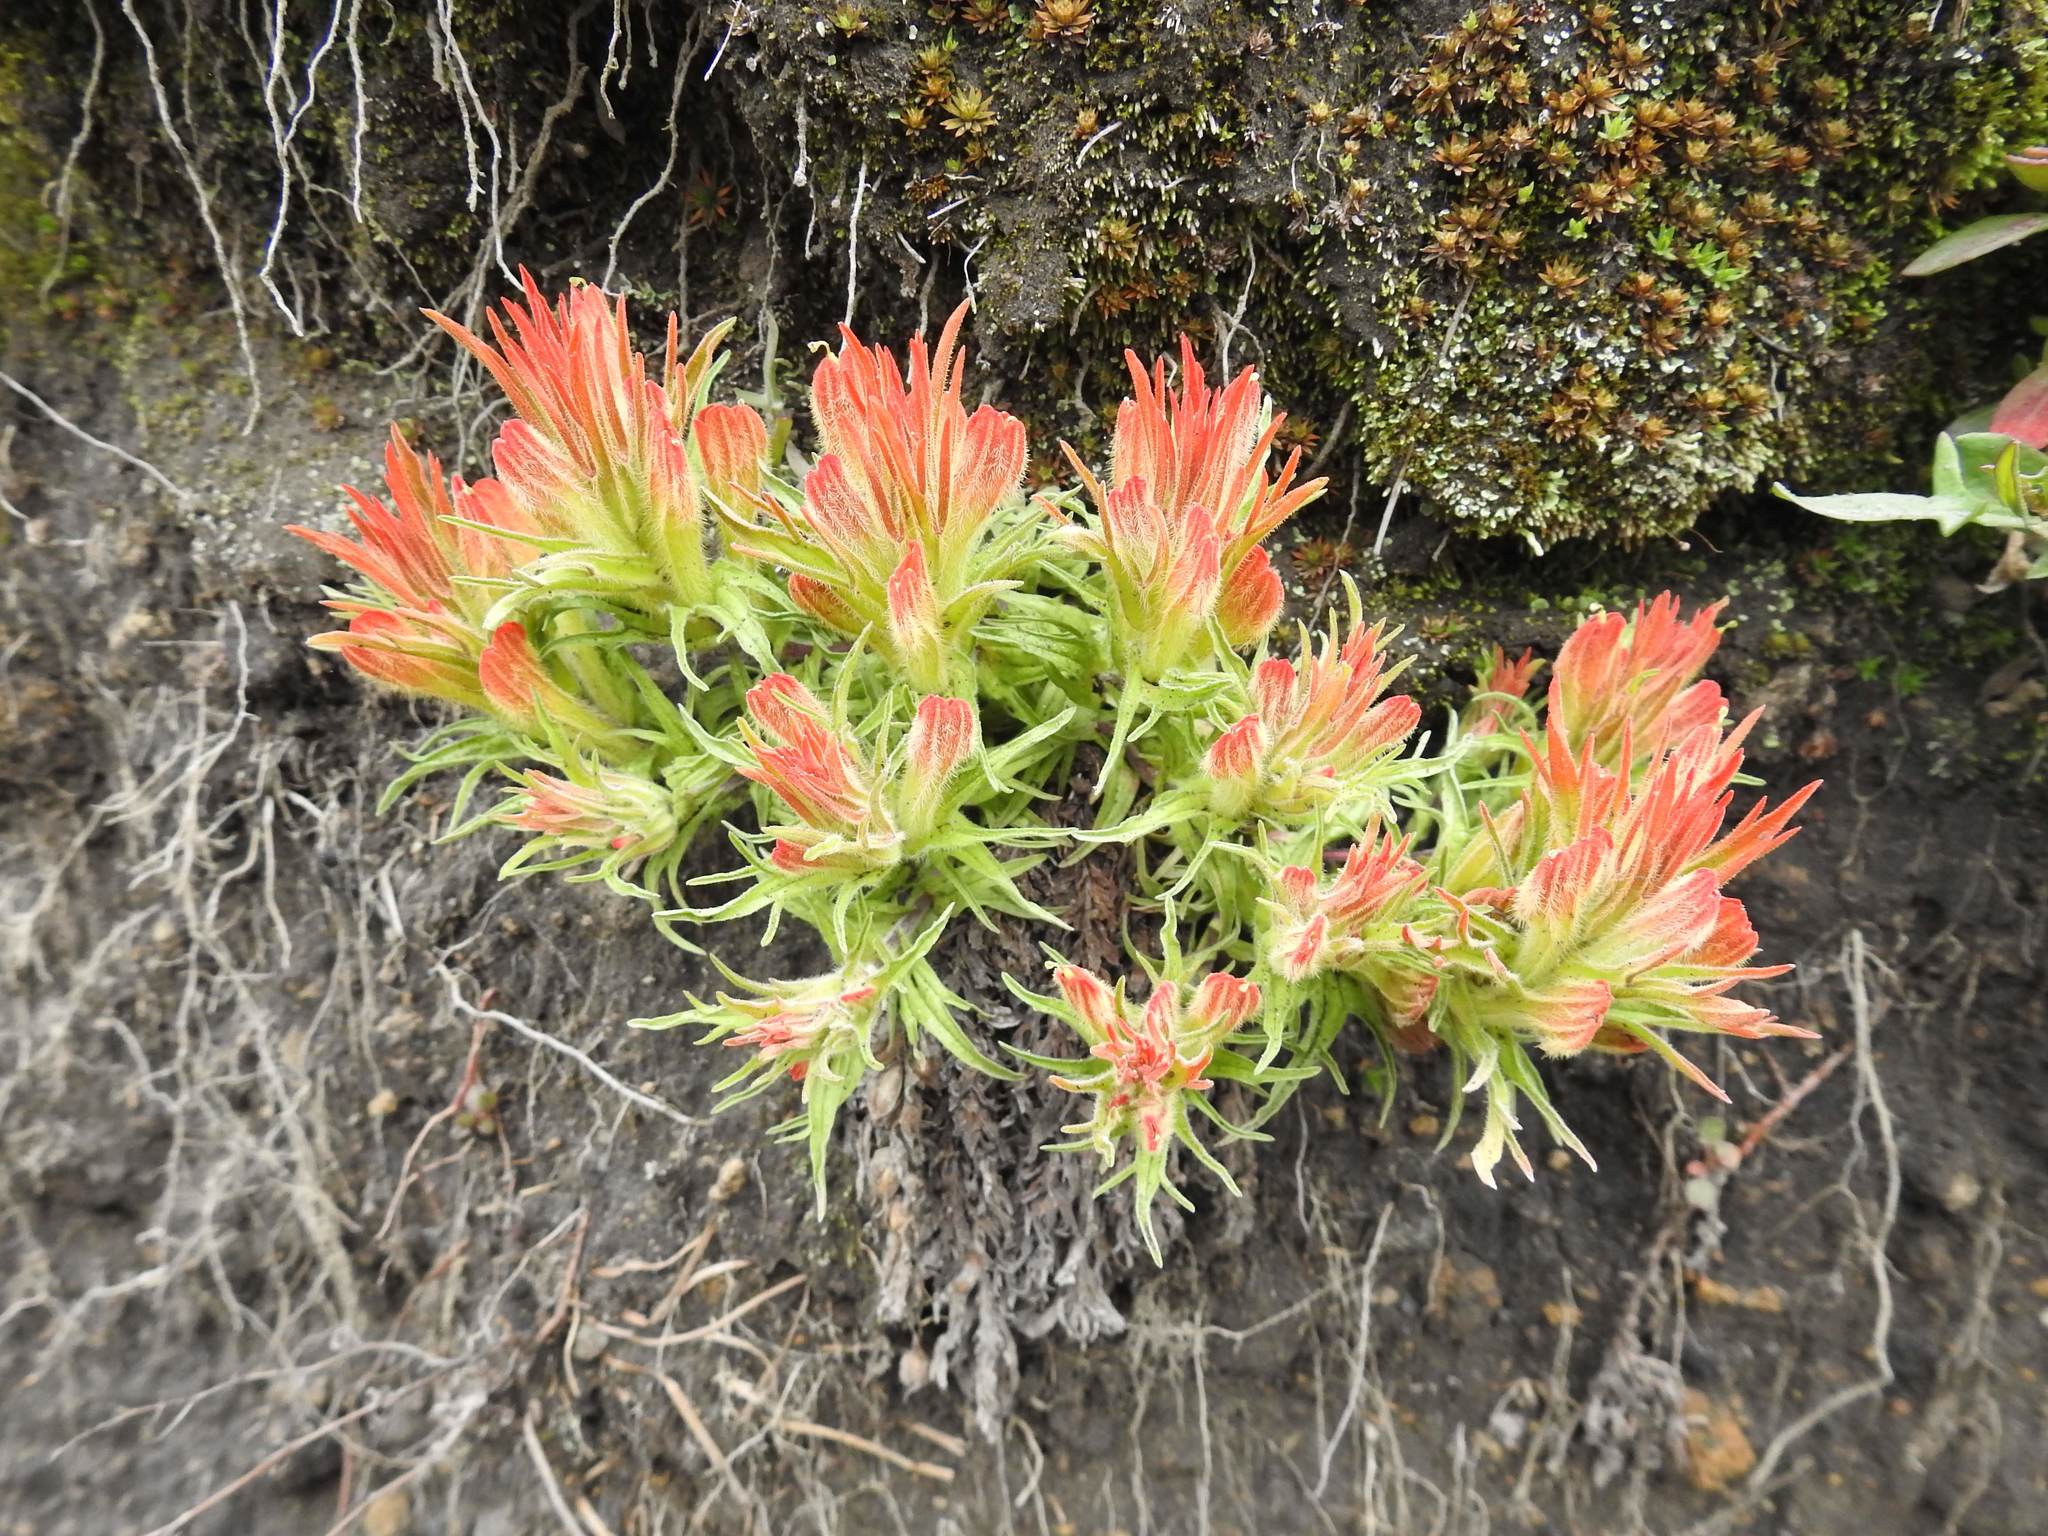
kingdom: Plantae
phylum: Tracheophyta
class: Magnoliopsida
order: Lamiales
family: Orobanchaceae
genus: Castilleja
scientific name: Castilleja moranensis
